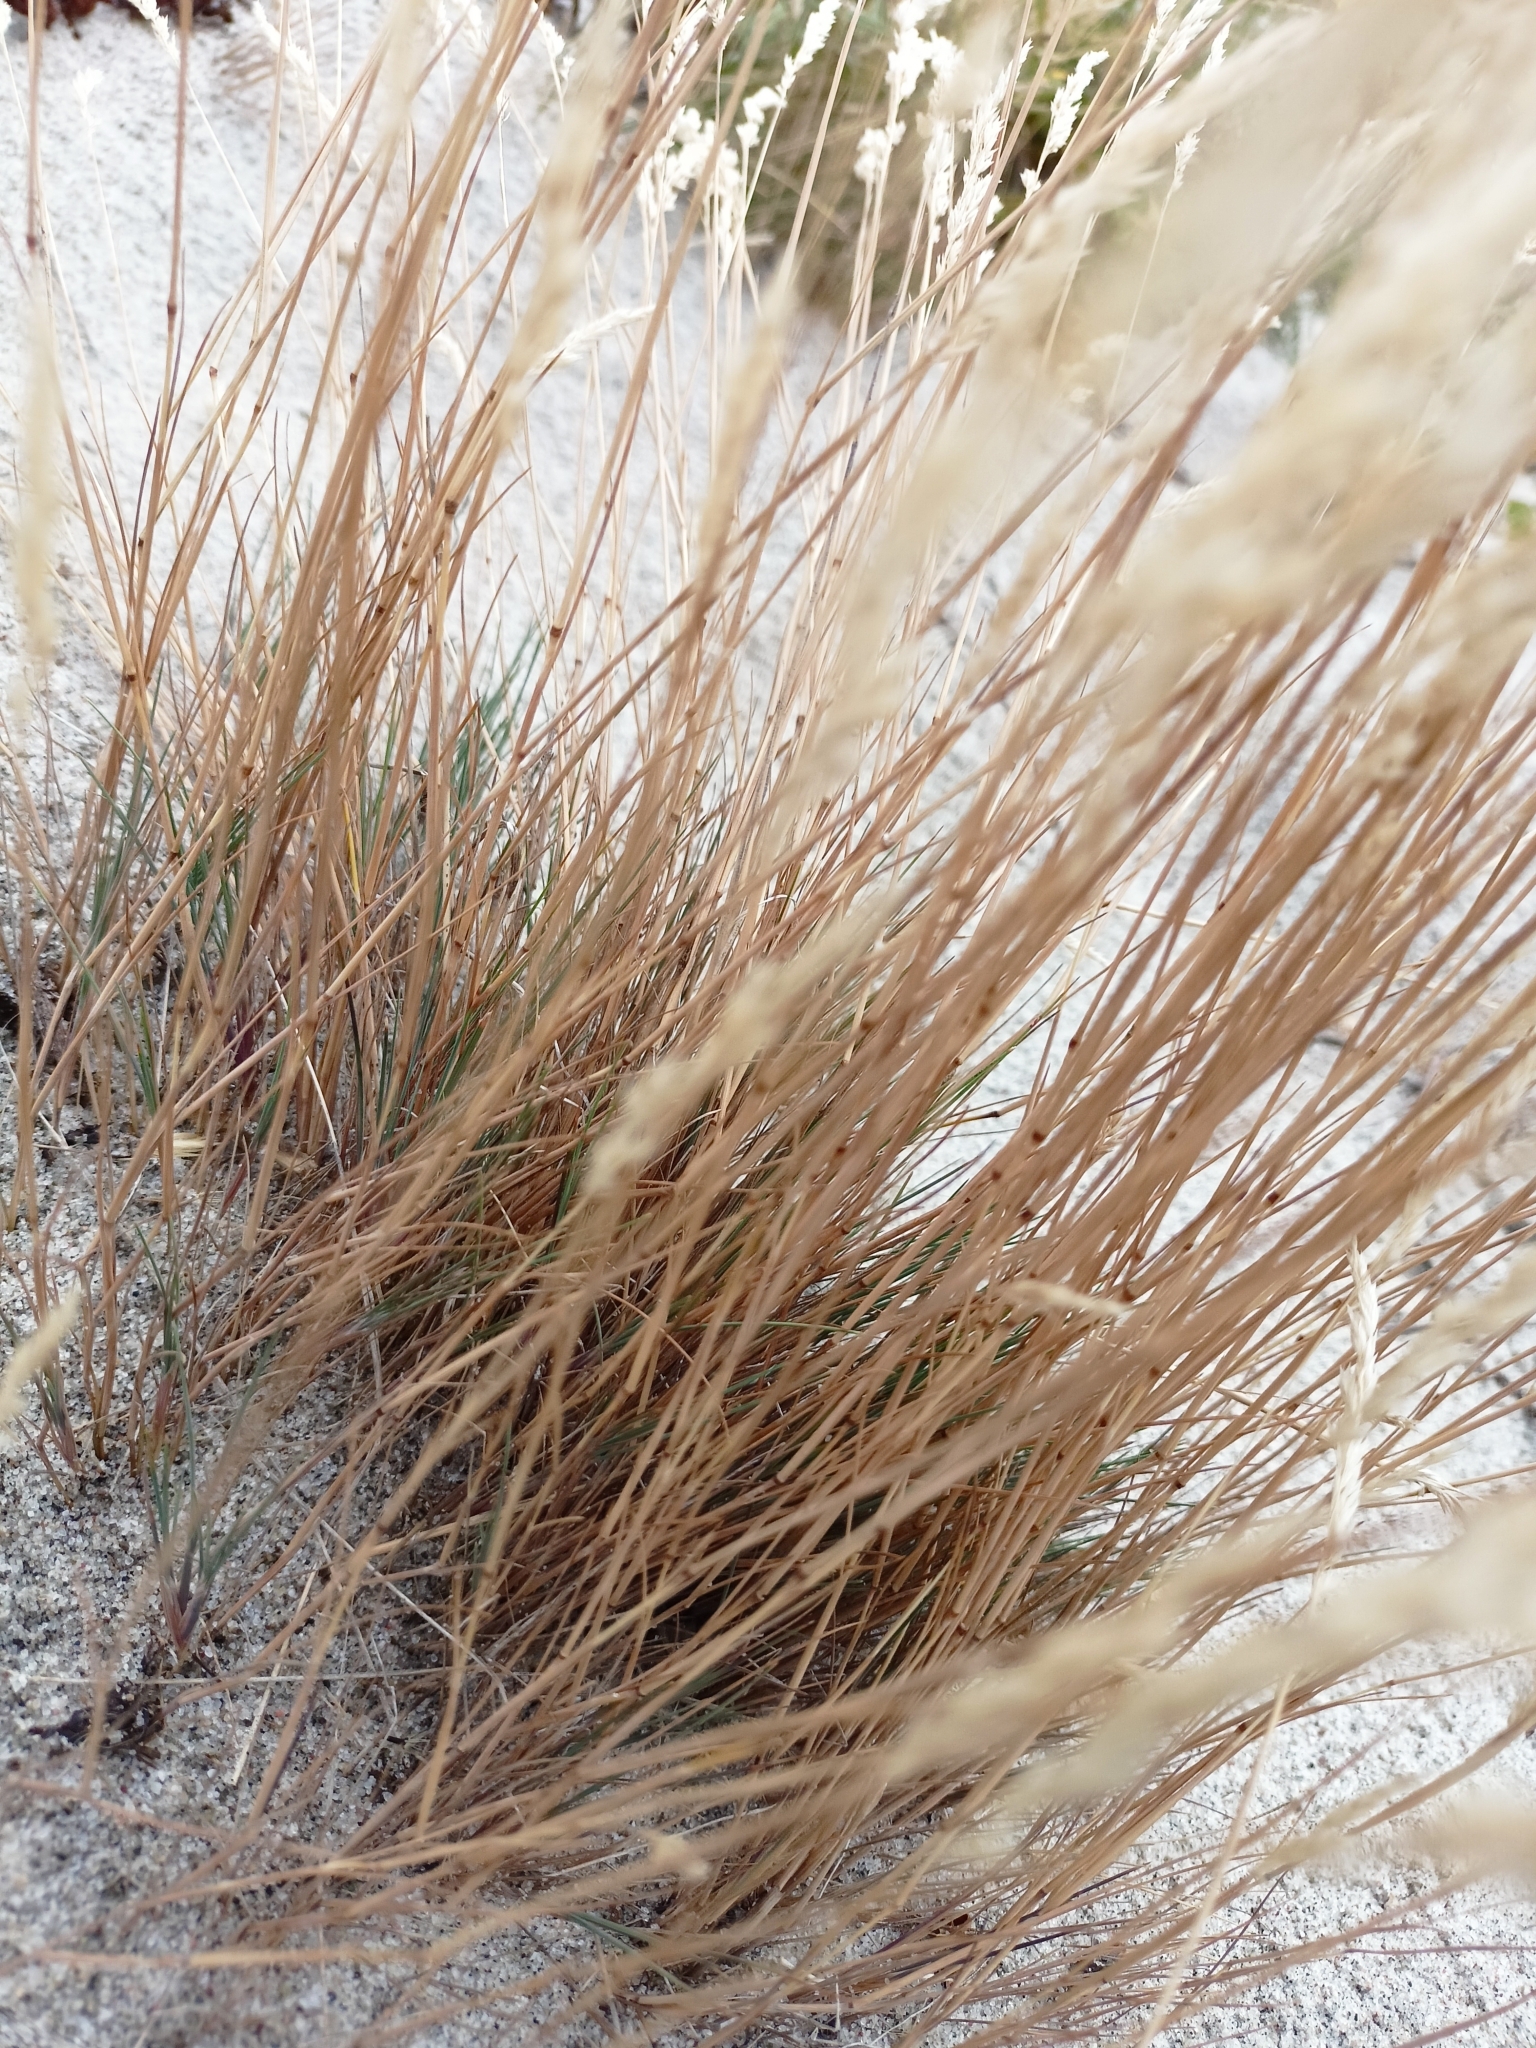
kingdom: Plantae
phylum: Tracheophyta
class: Liliopsida
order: Poales
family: Poaceae
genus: Corynephorus
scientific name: Corynephorus canescens
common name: Grey hair-grass
